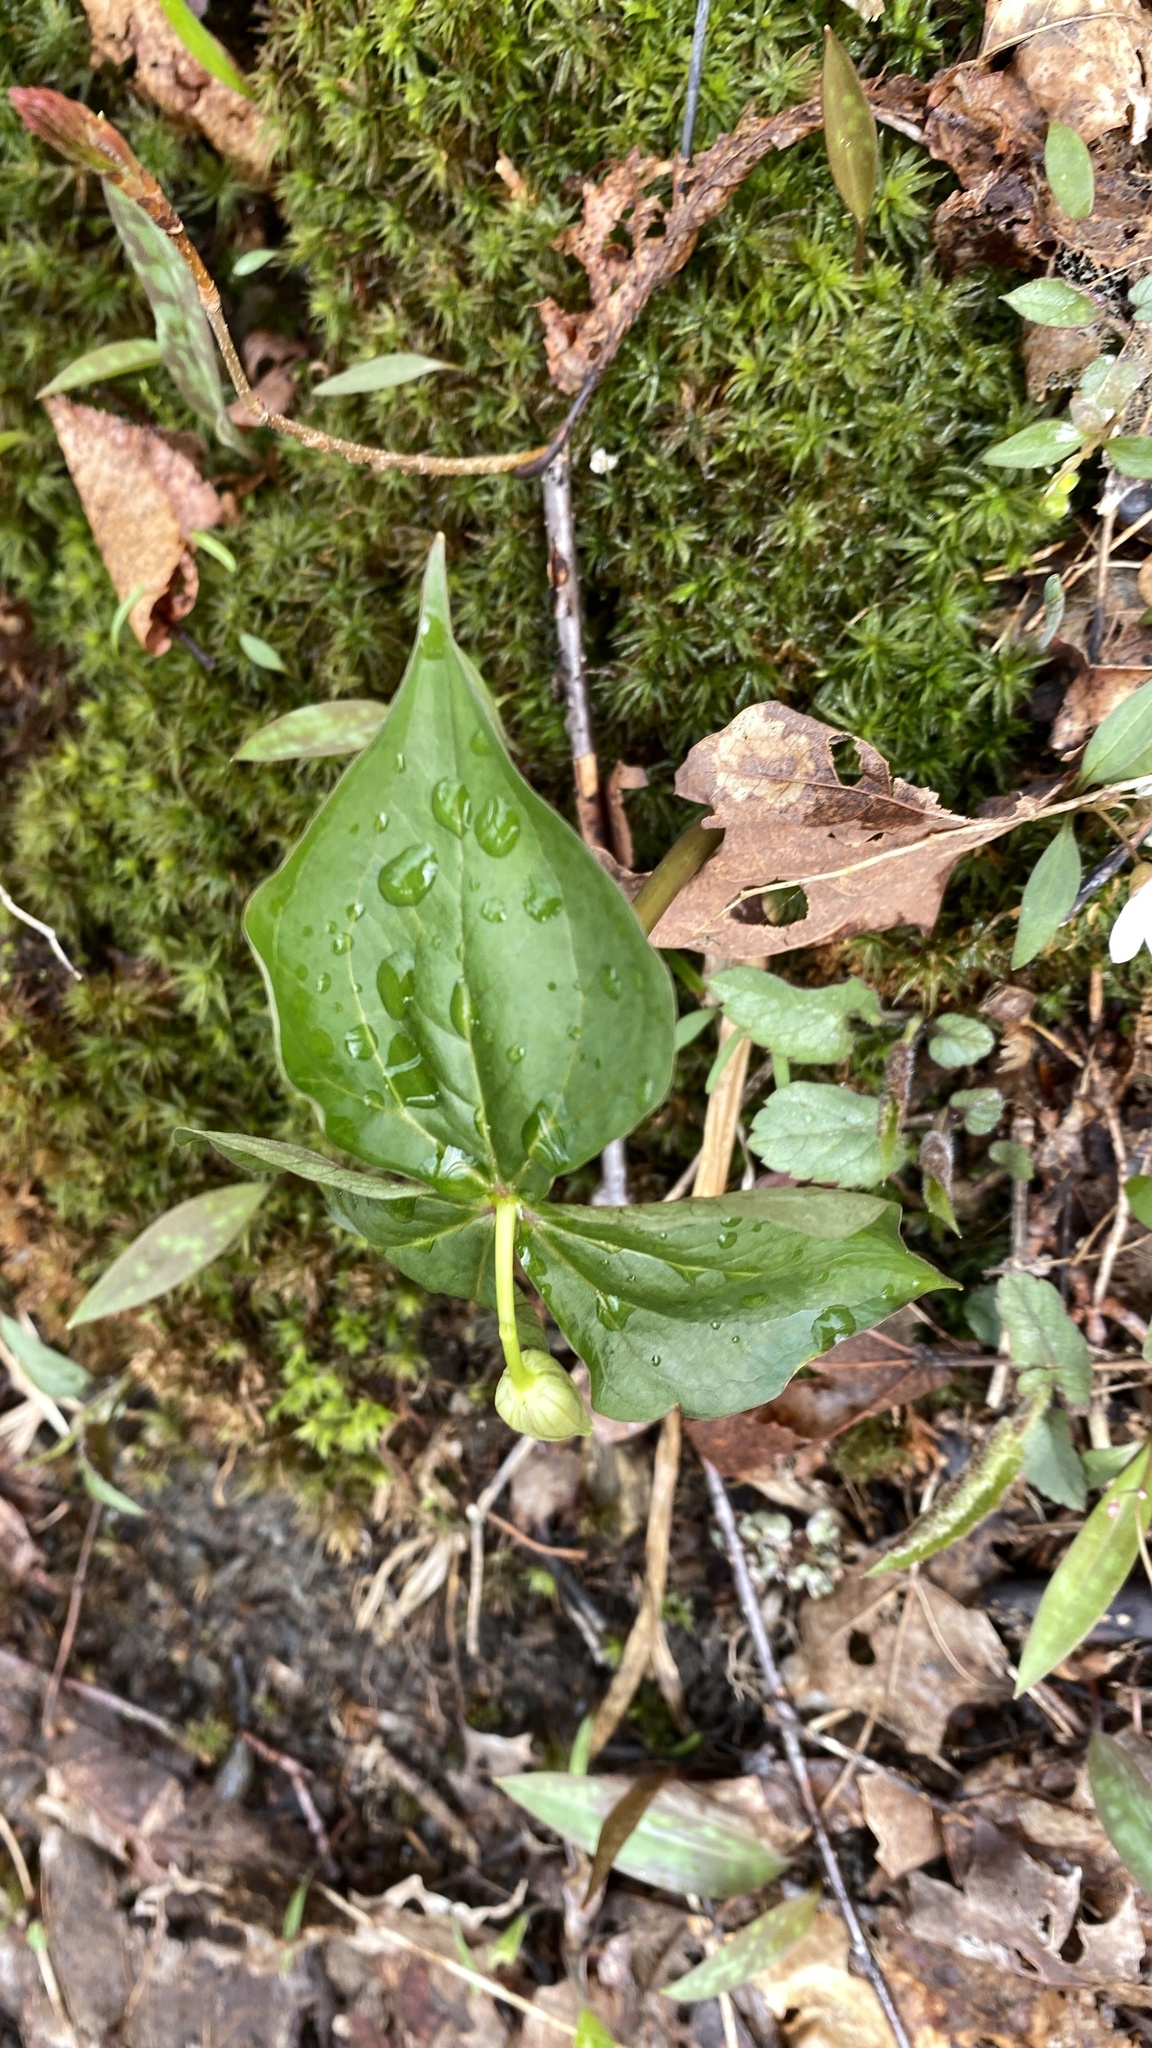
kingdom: Plantae
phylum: Tracheophyta
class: Liliopsida
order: Liliales
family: Melanthiaceae
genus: Trillium
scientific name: Trillium erectum
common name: Purple trillium
